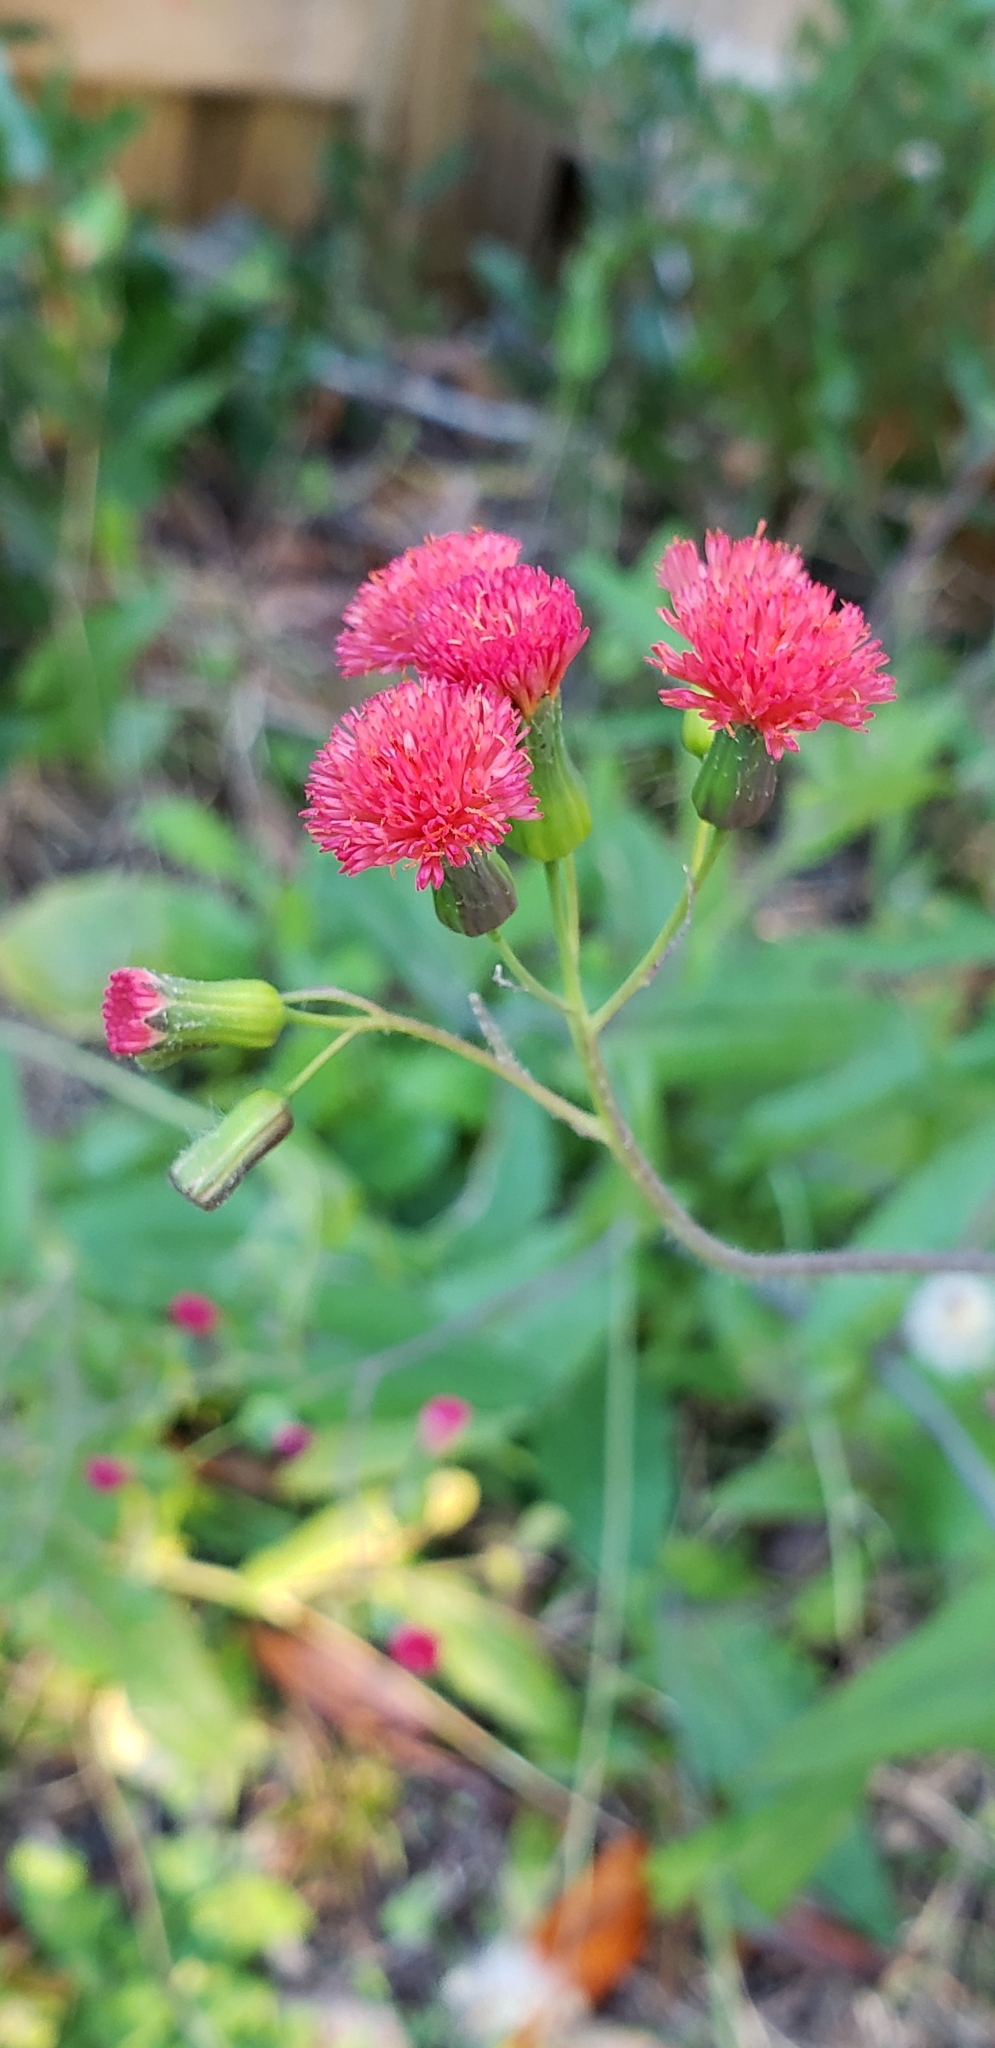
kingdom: Plantae
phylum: Tracheophyta
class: Magnoliopsida
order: Asterales
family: Asteraceae
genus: Emilia
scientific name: Emilia fosbergii
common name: Florida tasselflower
